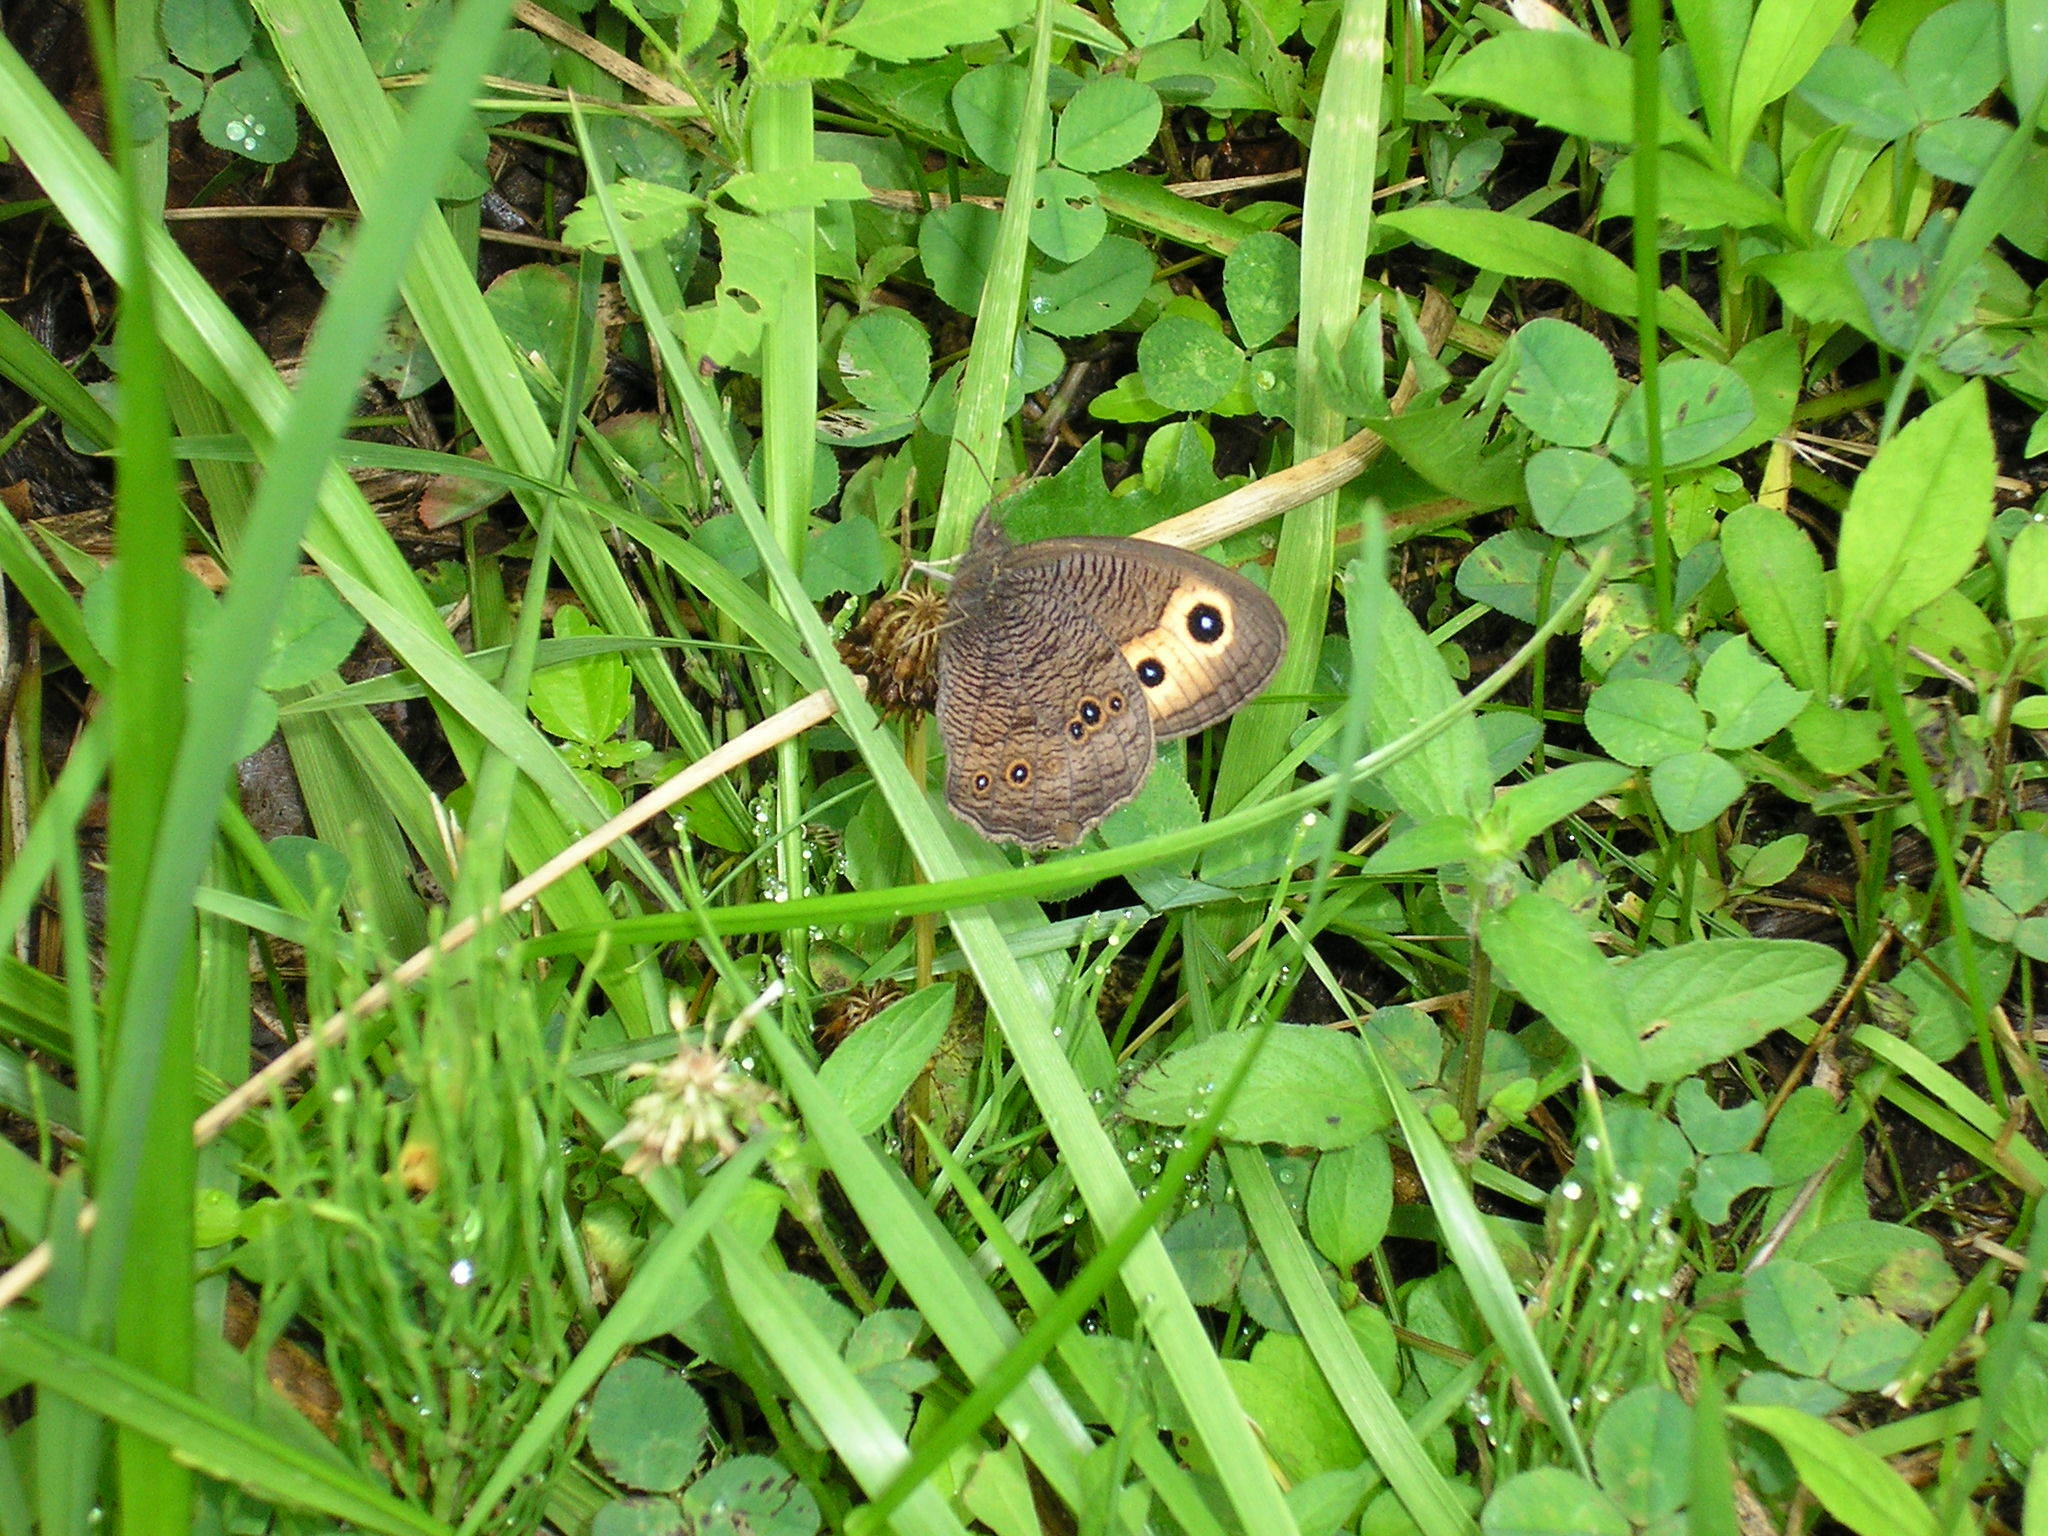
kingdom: Animalia
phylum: Arthropoda
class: Insecta
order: Lepidoptera
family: Nymphalidae
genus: Cercyonis
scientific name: Cercyonis pegala
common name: Common wood-nymph
